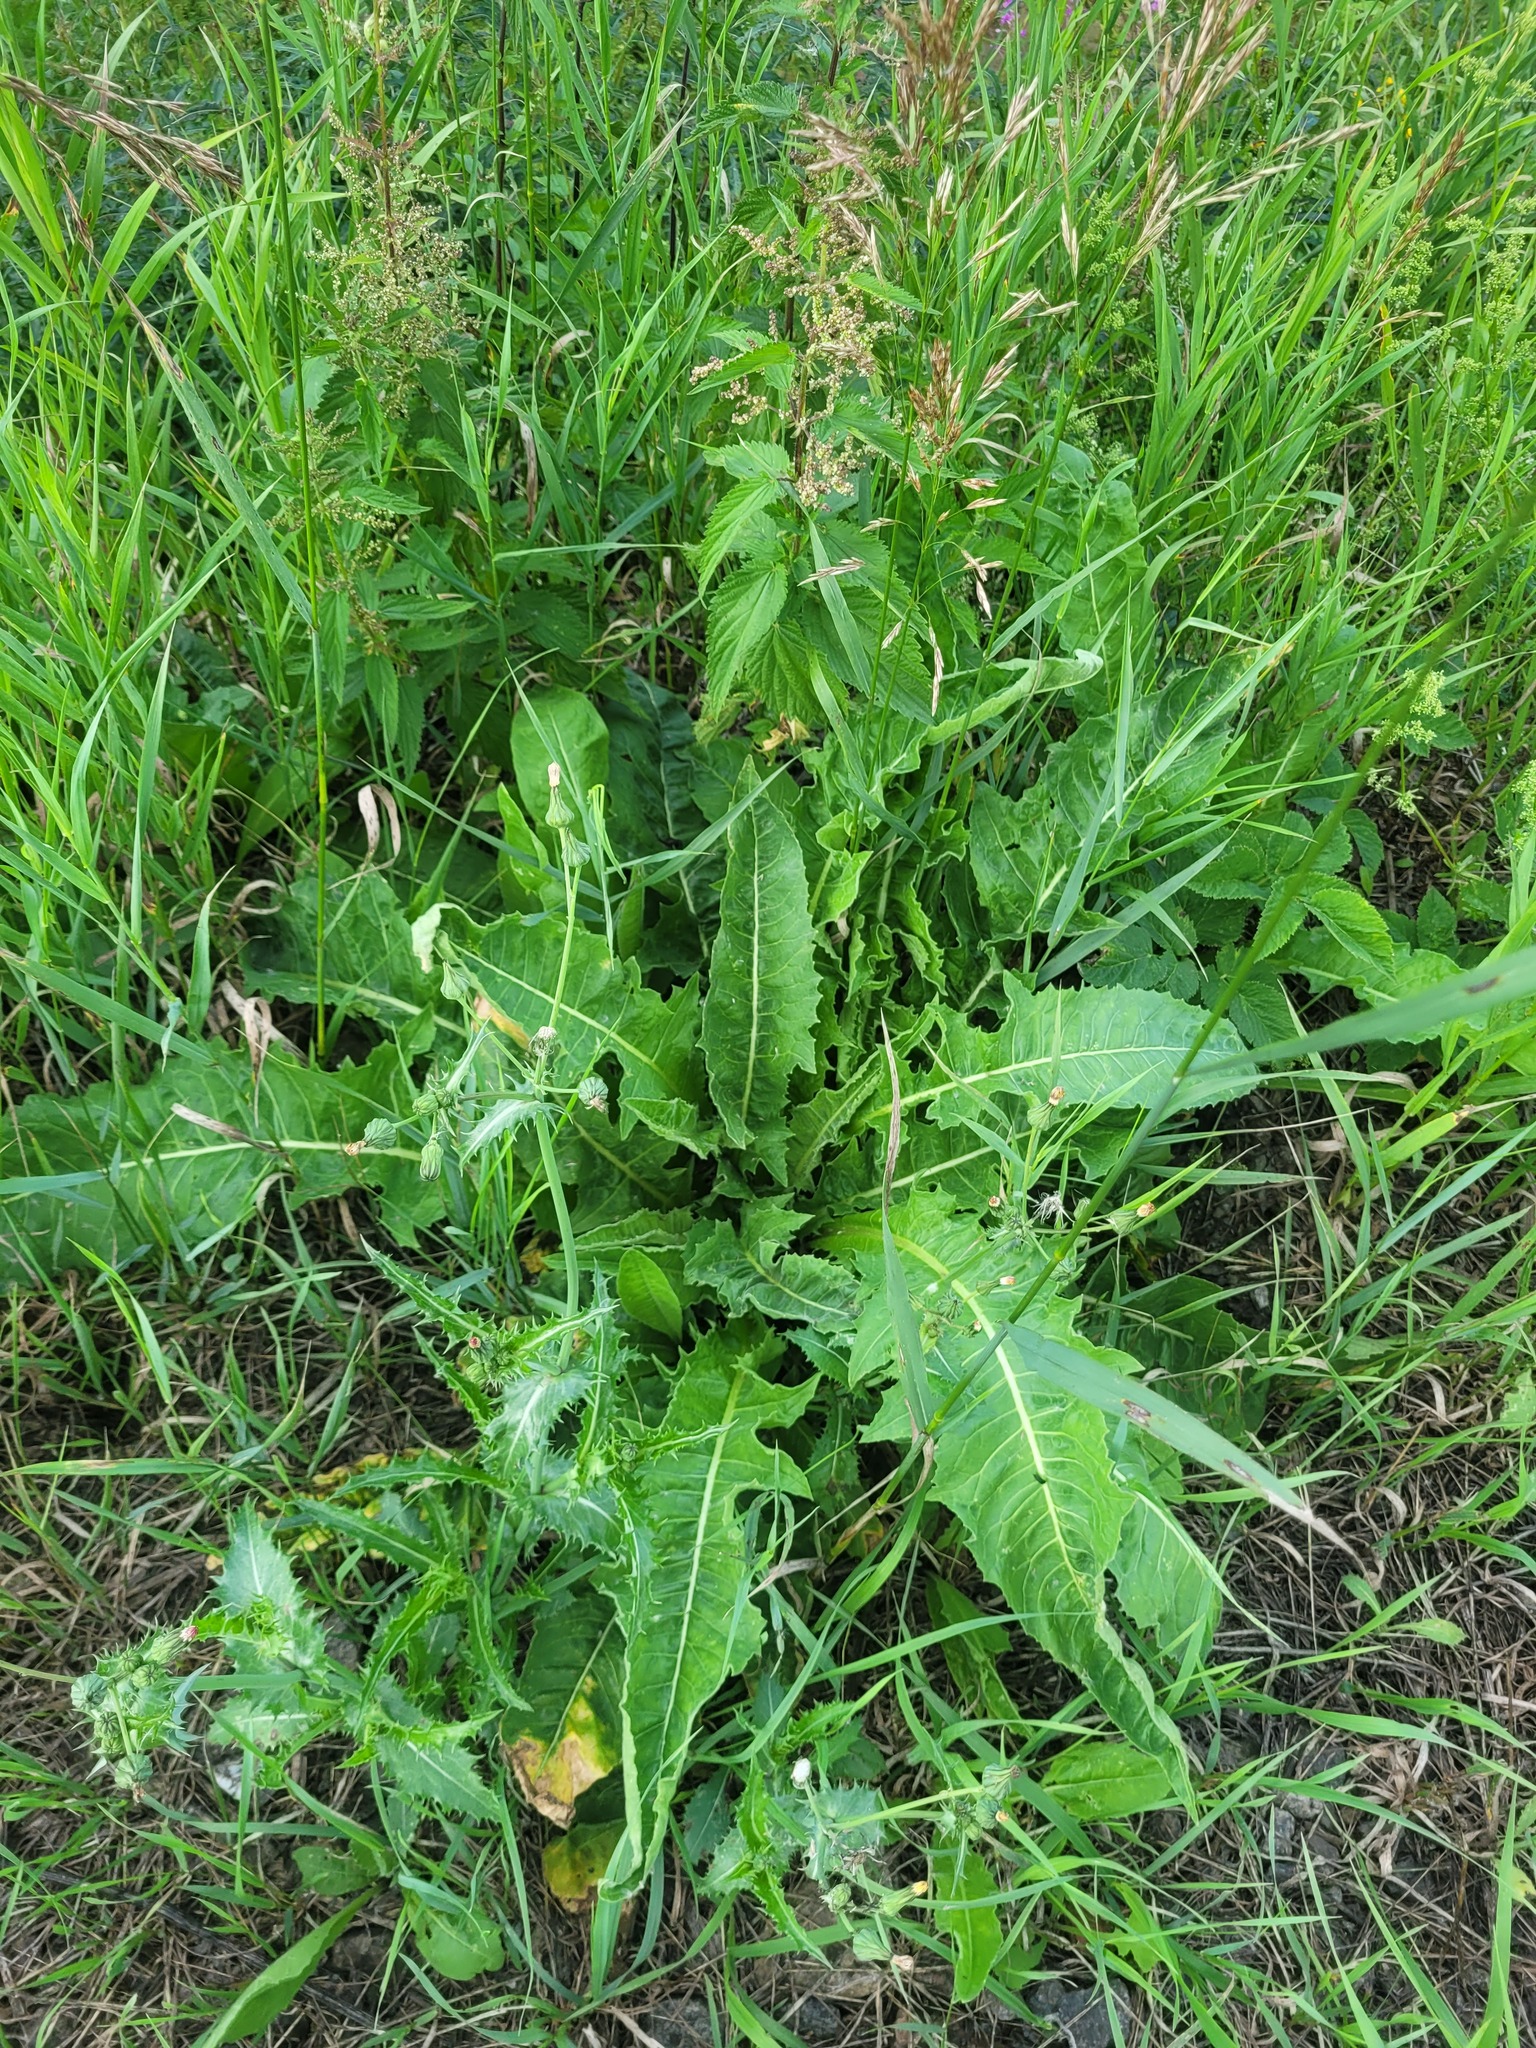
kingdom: Plantae
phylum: Tracheophyta
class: Magnoliopsida
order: Brassicales
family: Brassicaceae
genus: Bunias
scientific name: Bunias orientalis
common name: Warty-cabbage
